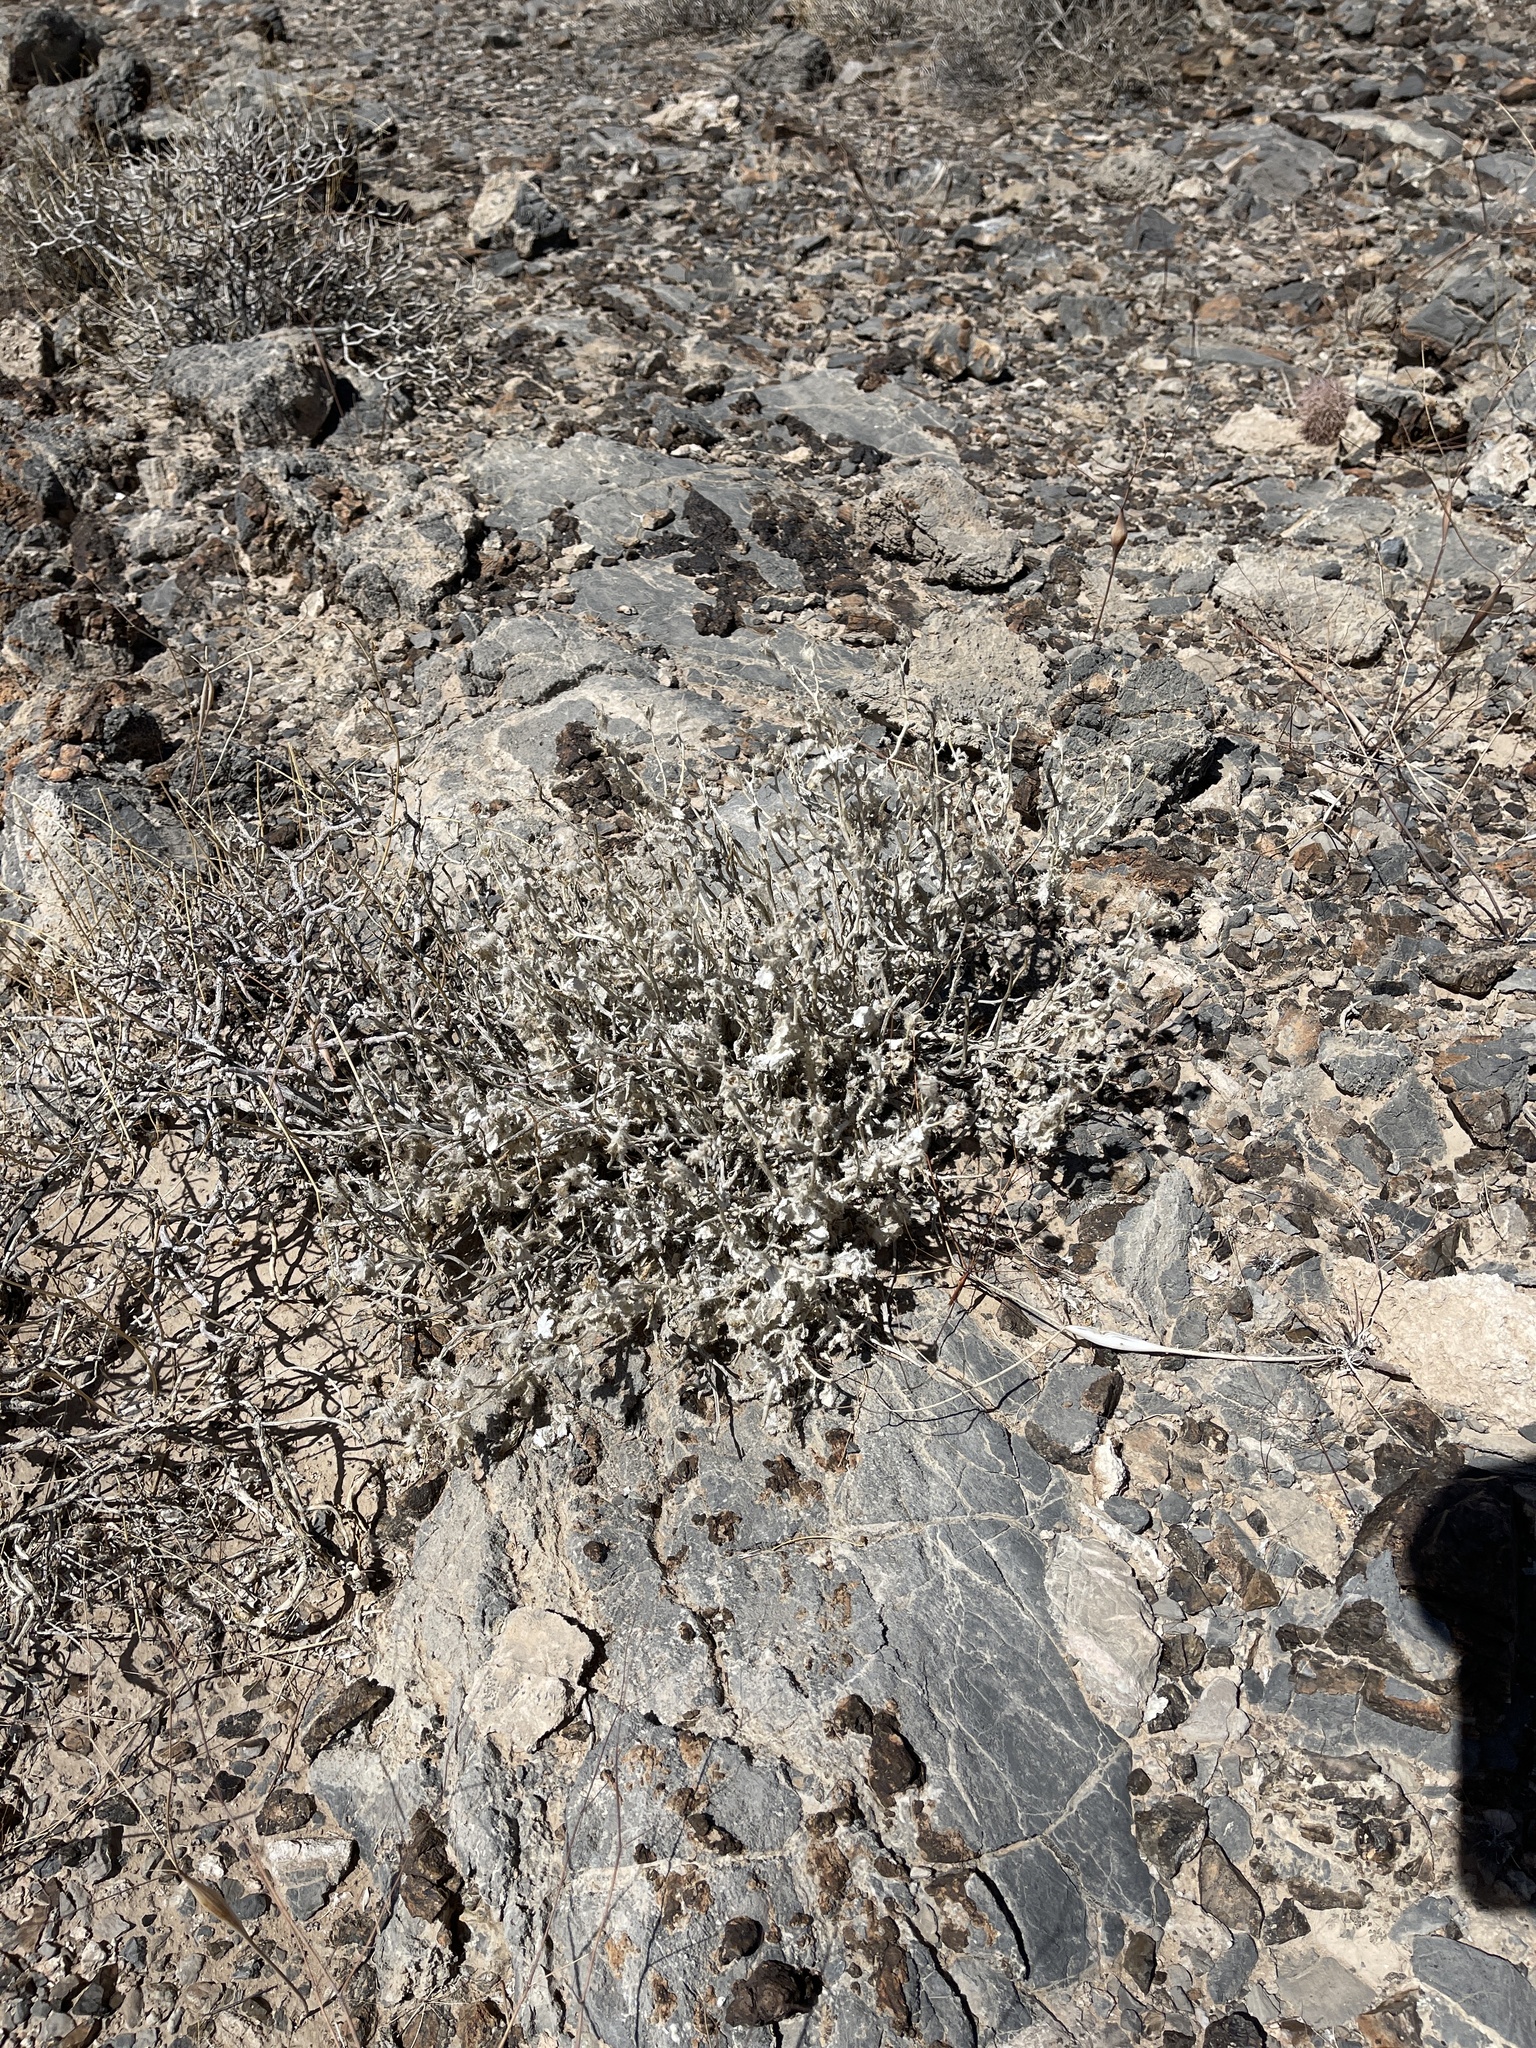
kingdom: Plantae
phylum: Tracheophyta
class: Magnoliopsida
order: Cornales
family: Loasaceae
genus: Eucnide
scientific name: Eucnide urens
